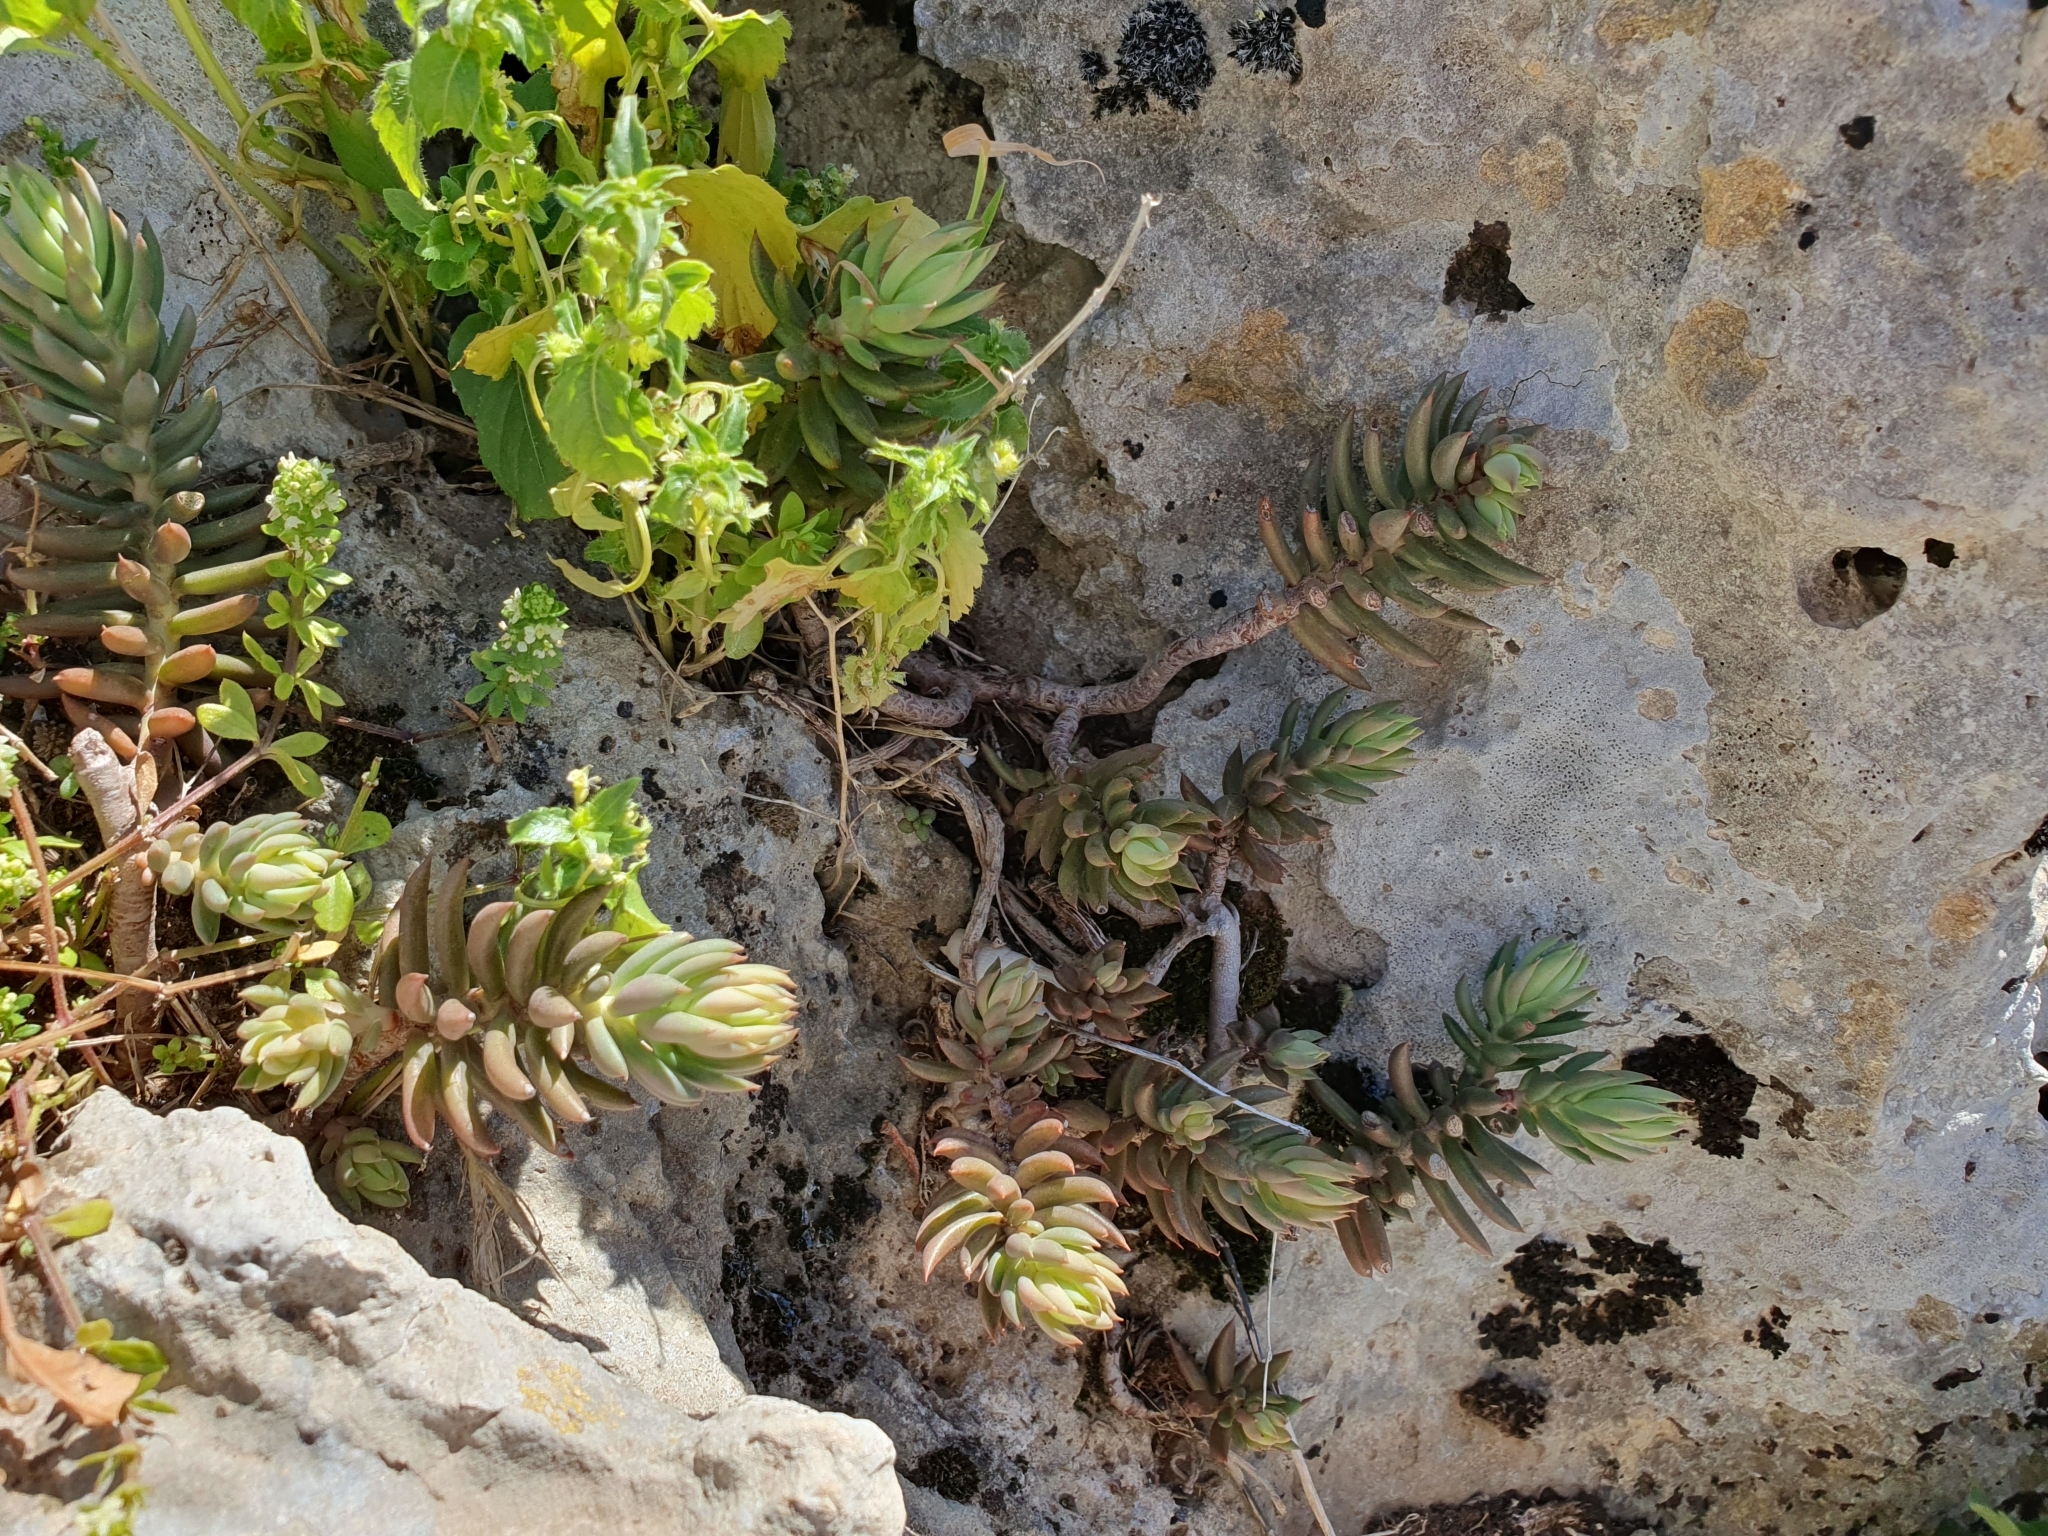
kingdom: Plantae
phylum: Tracheophyta
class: Magnoliopsida
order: Saxifragales
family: Crassulaceae
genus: Petrosedum
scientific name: Petrosedum sediforme
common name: Pale stonecrop
